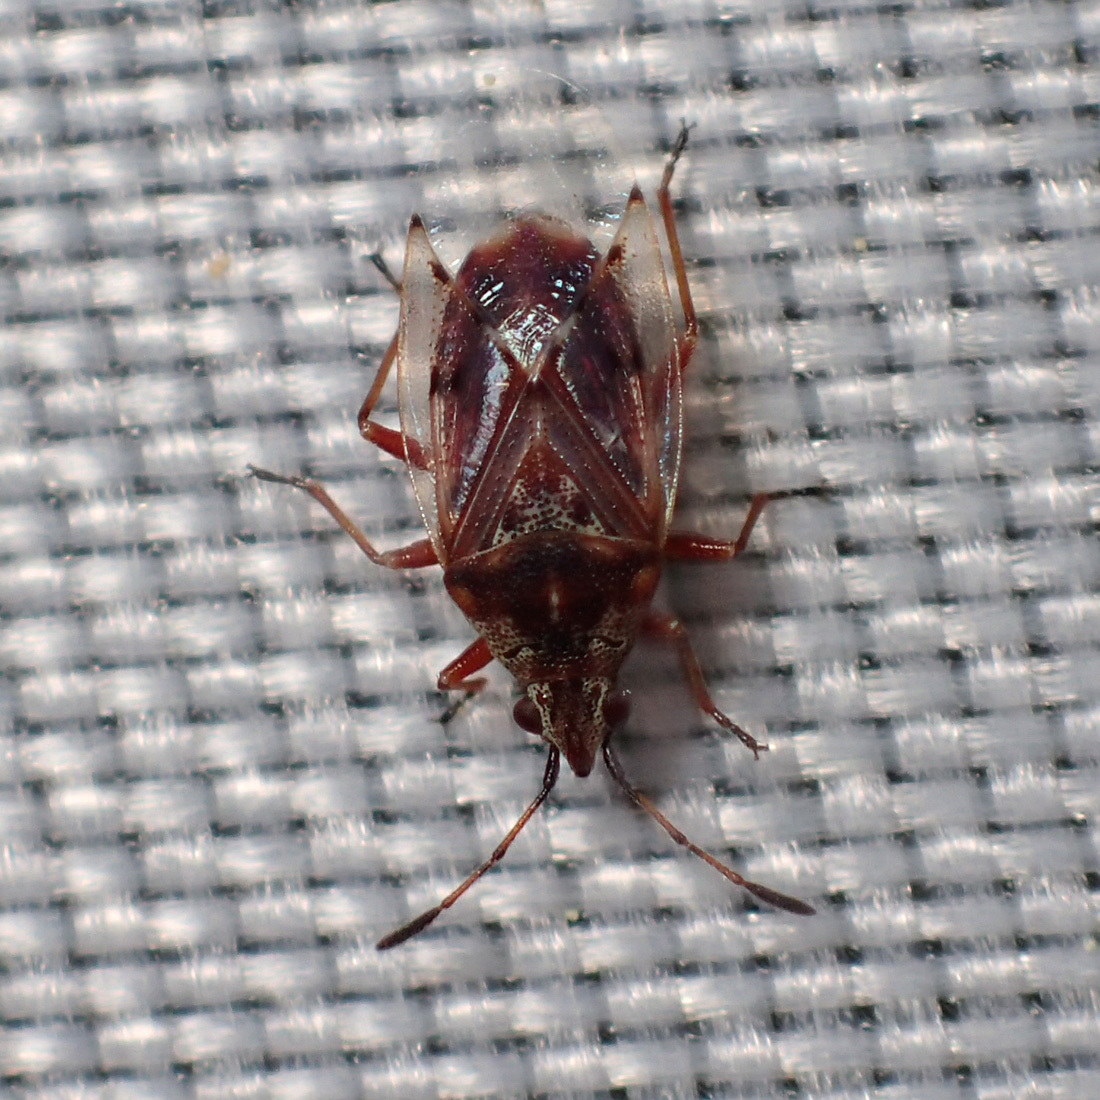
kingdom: Animalia
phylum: Arthropoda
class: Insecta
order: Hemiptera
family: Lygaeidae
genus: Kleidocerys
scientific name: Kleidocerys resedae
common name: Birch catkin bug
